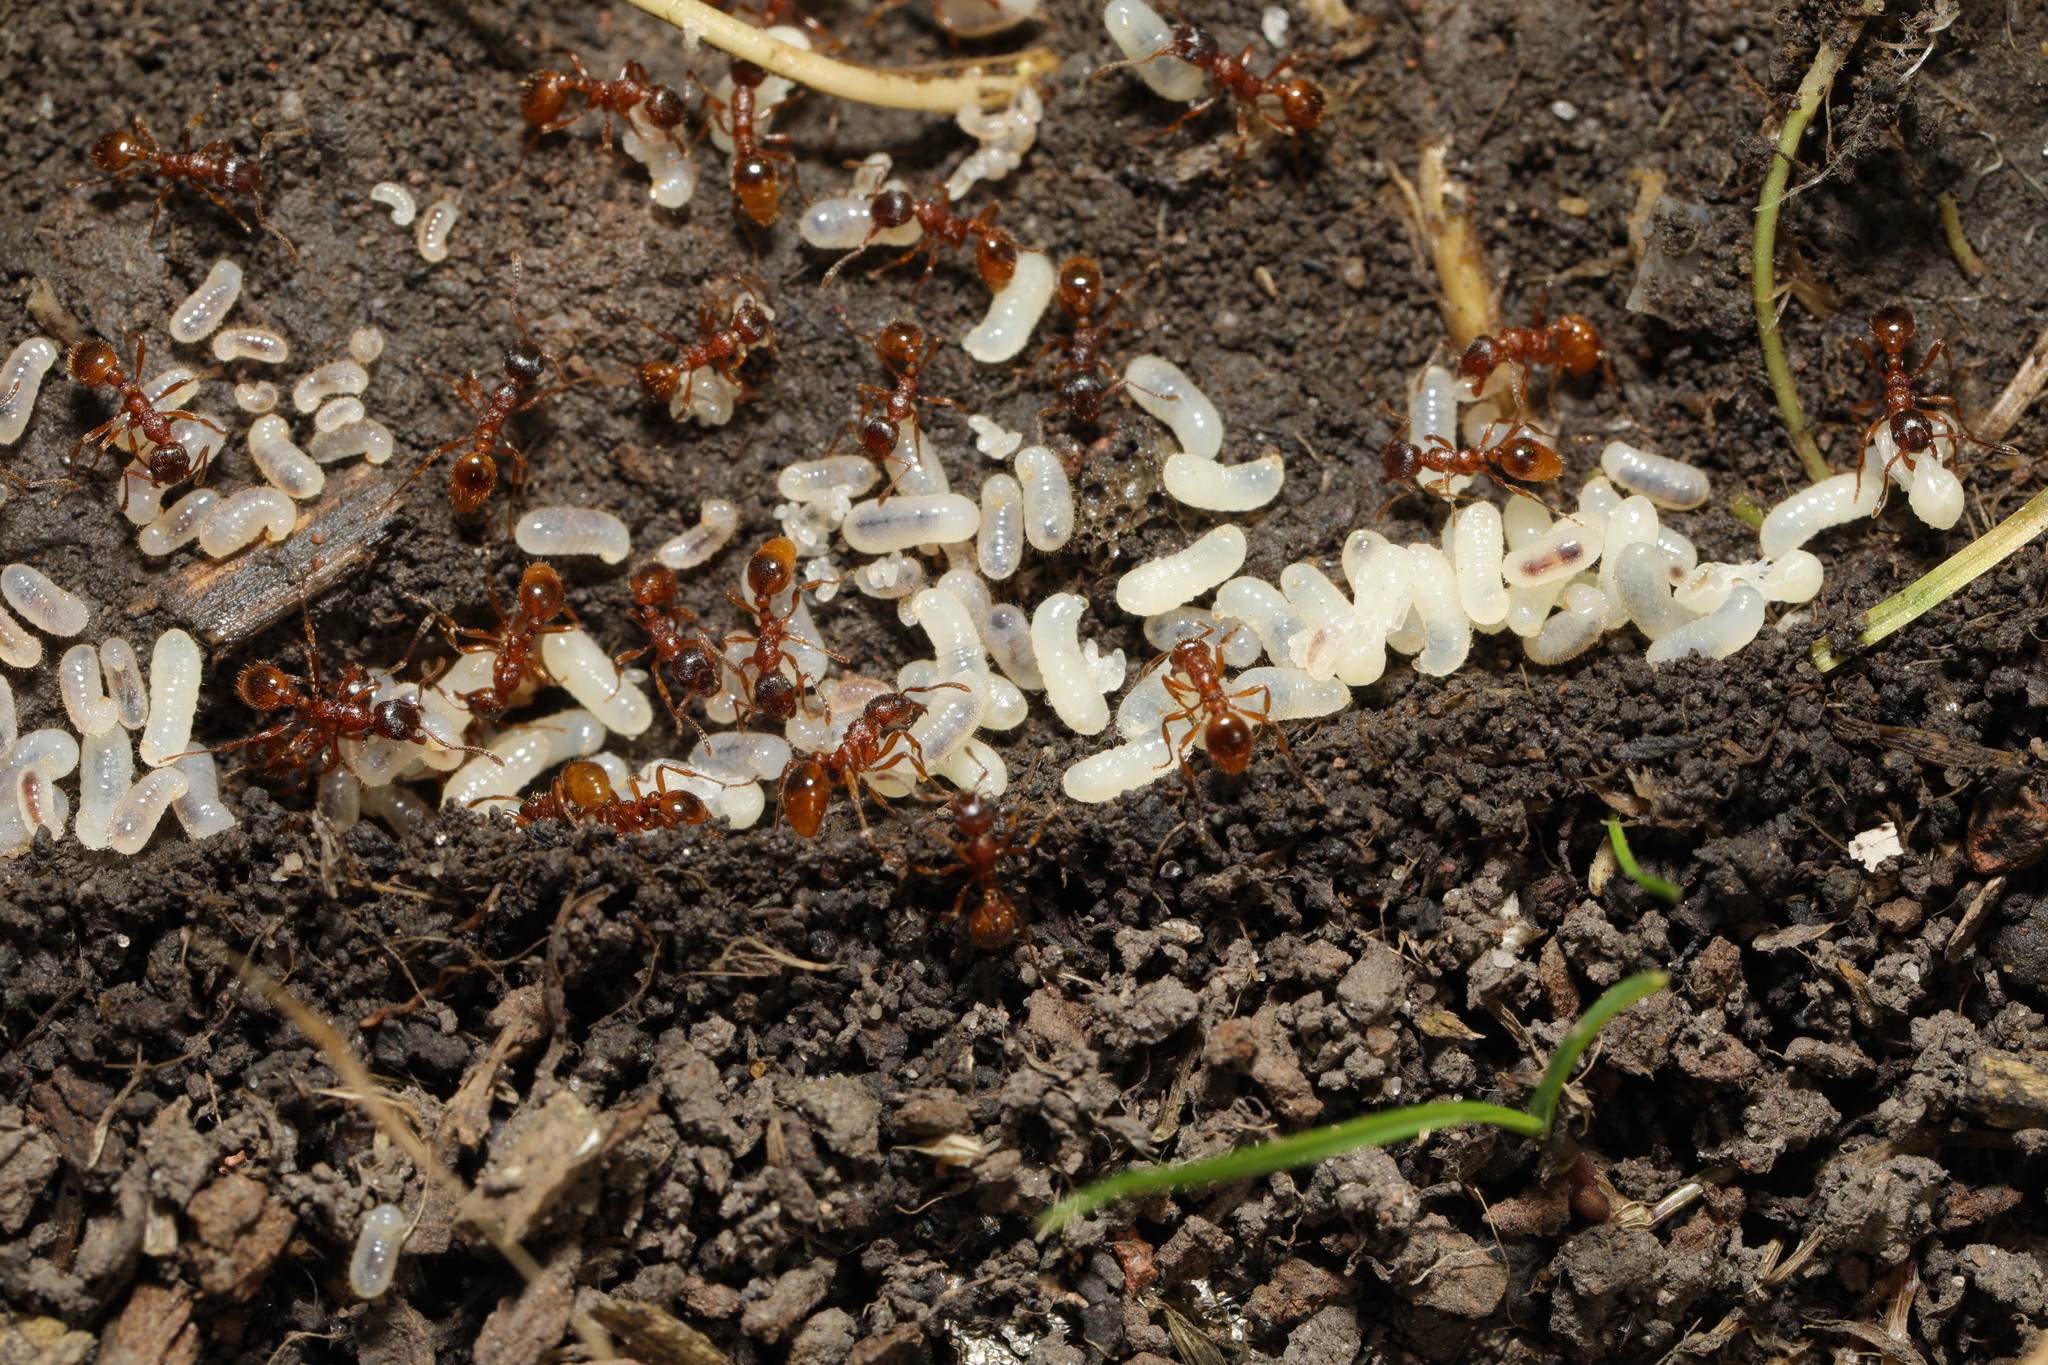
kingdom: Animalia
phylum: Arthropoda
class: Insecta
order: Hymenoptera
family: Formicidae
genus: Myrmica
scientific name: Myrmica rubra
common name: European fire ant
